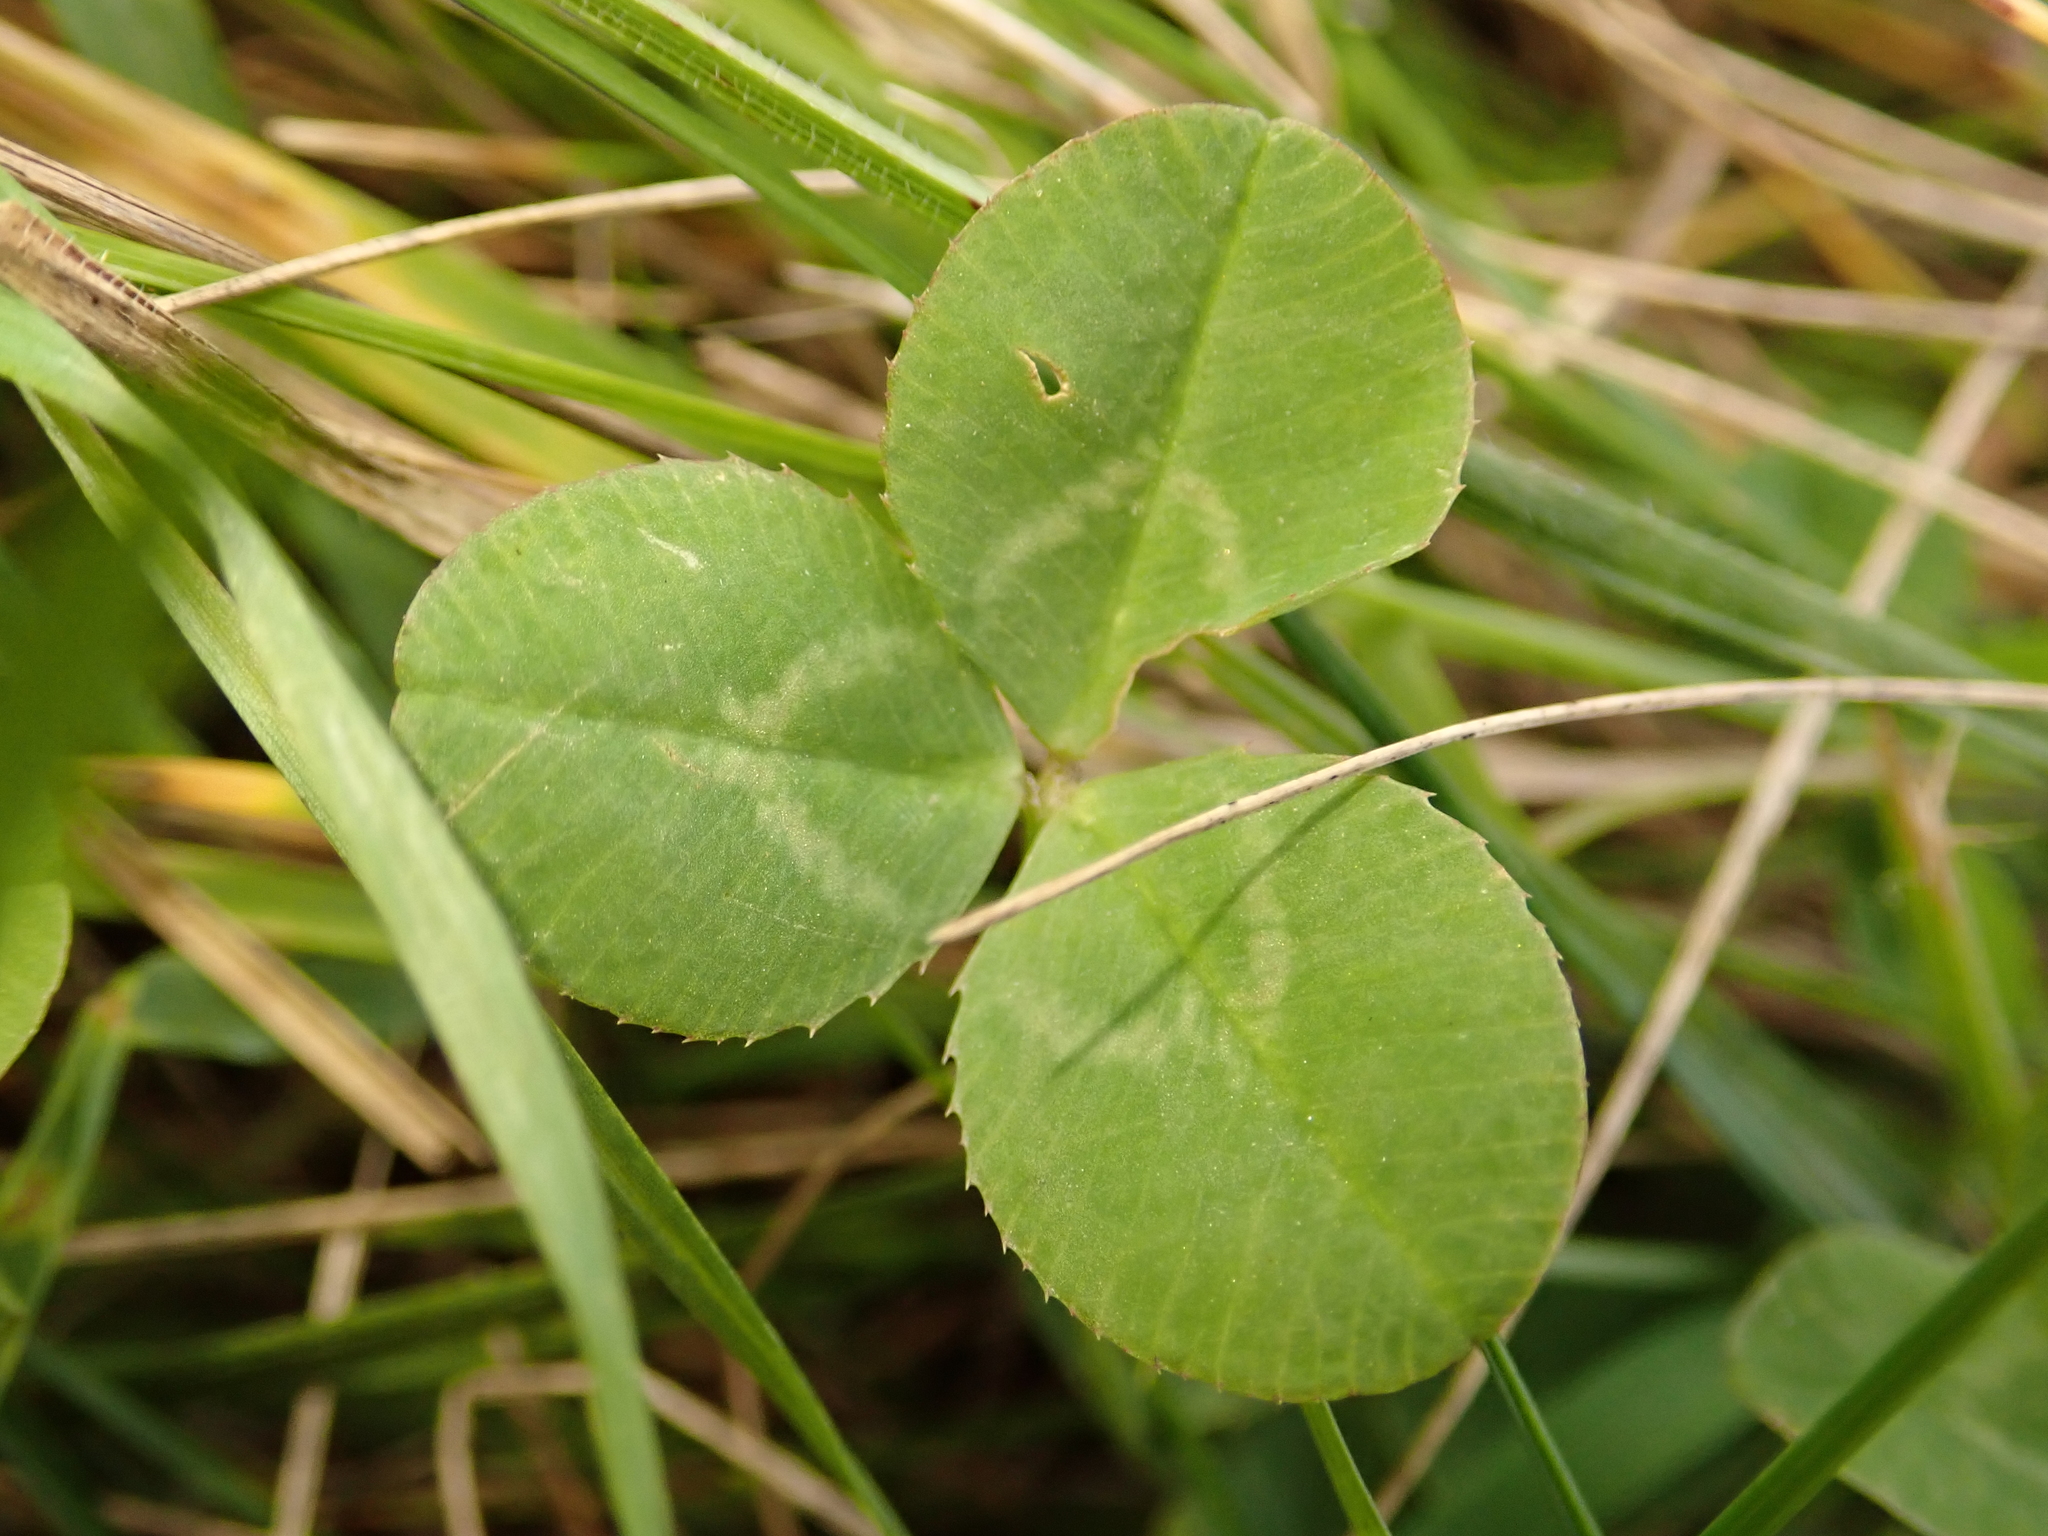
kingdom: Plantae
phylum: Tracheophyta
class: Magnoliopsida
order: Fabales
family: Fabaceae
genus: Trifolium
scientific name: Trifolium repens
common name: White clover
